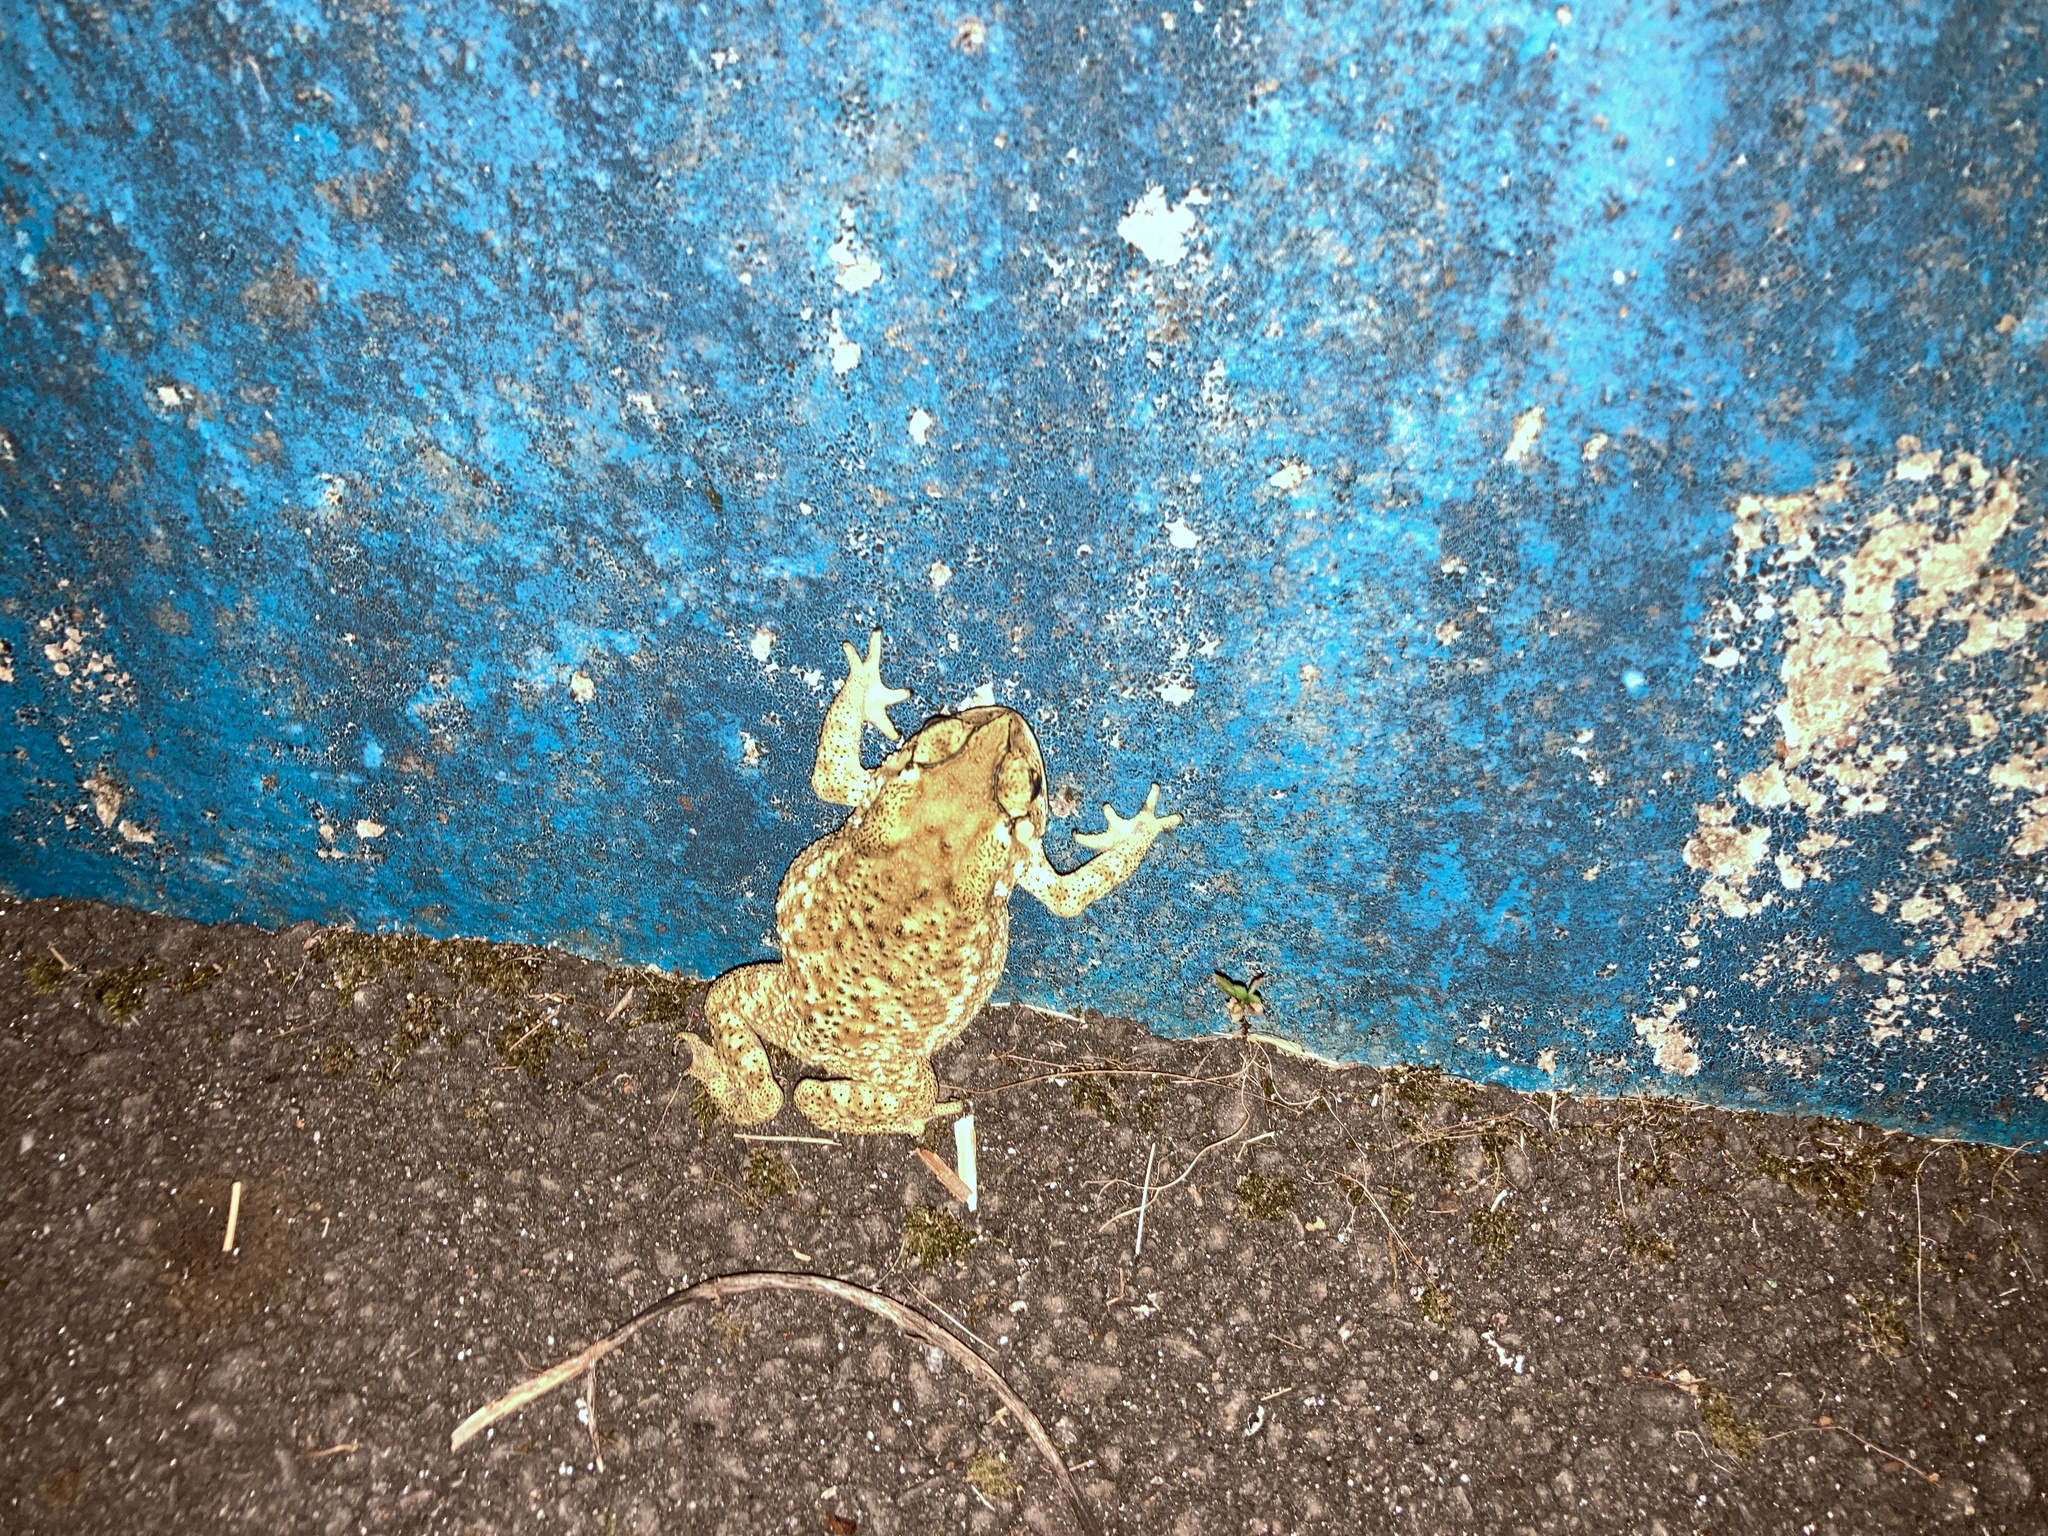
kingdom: Animalia
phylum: Chordata
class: Amphibia
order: Anura
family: Bufonidae
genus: Duttaphrynus
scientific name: Duttaphrynus melanostictus
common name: Common sunda toad
